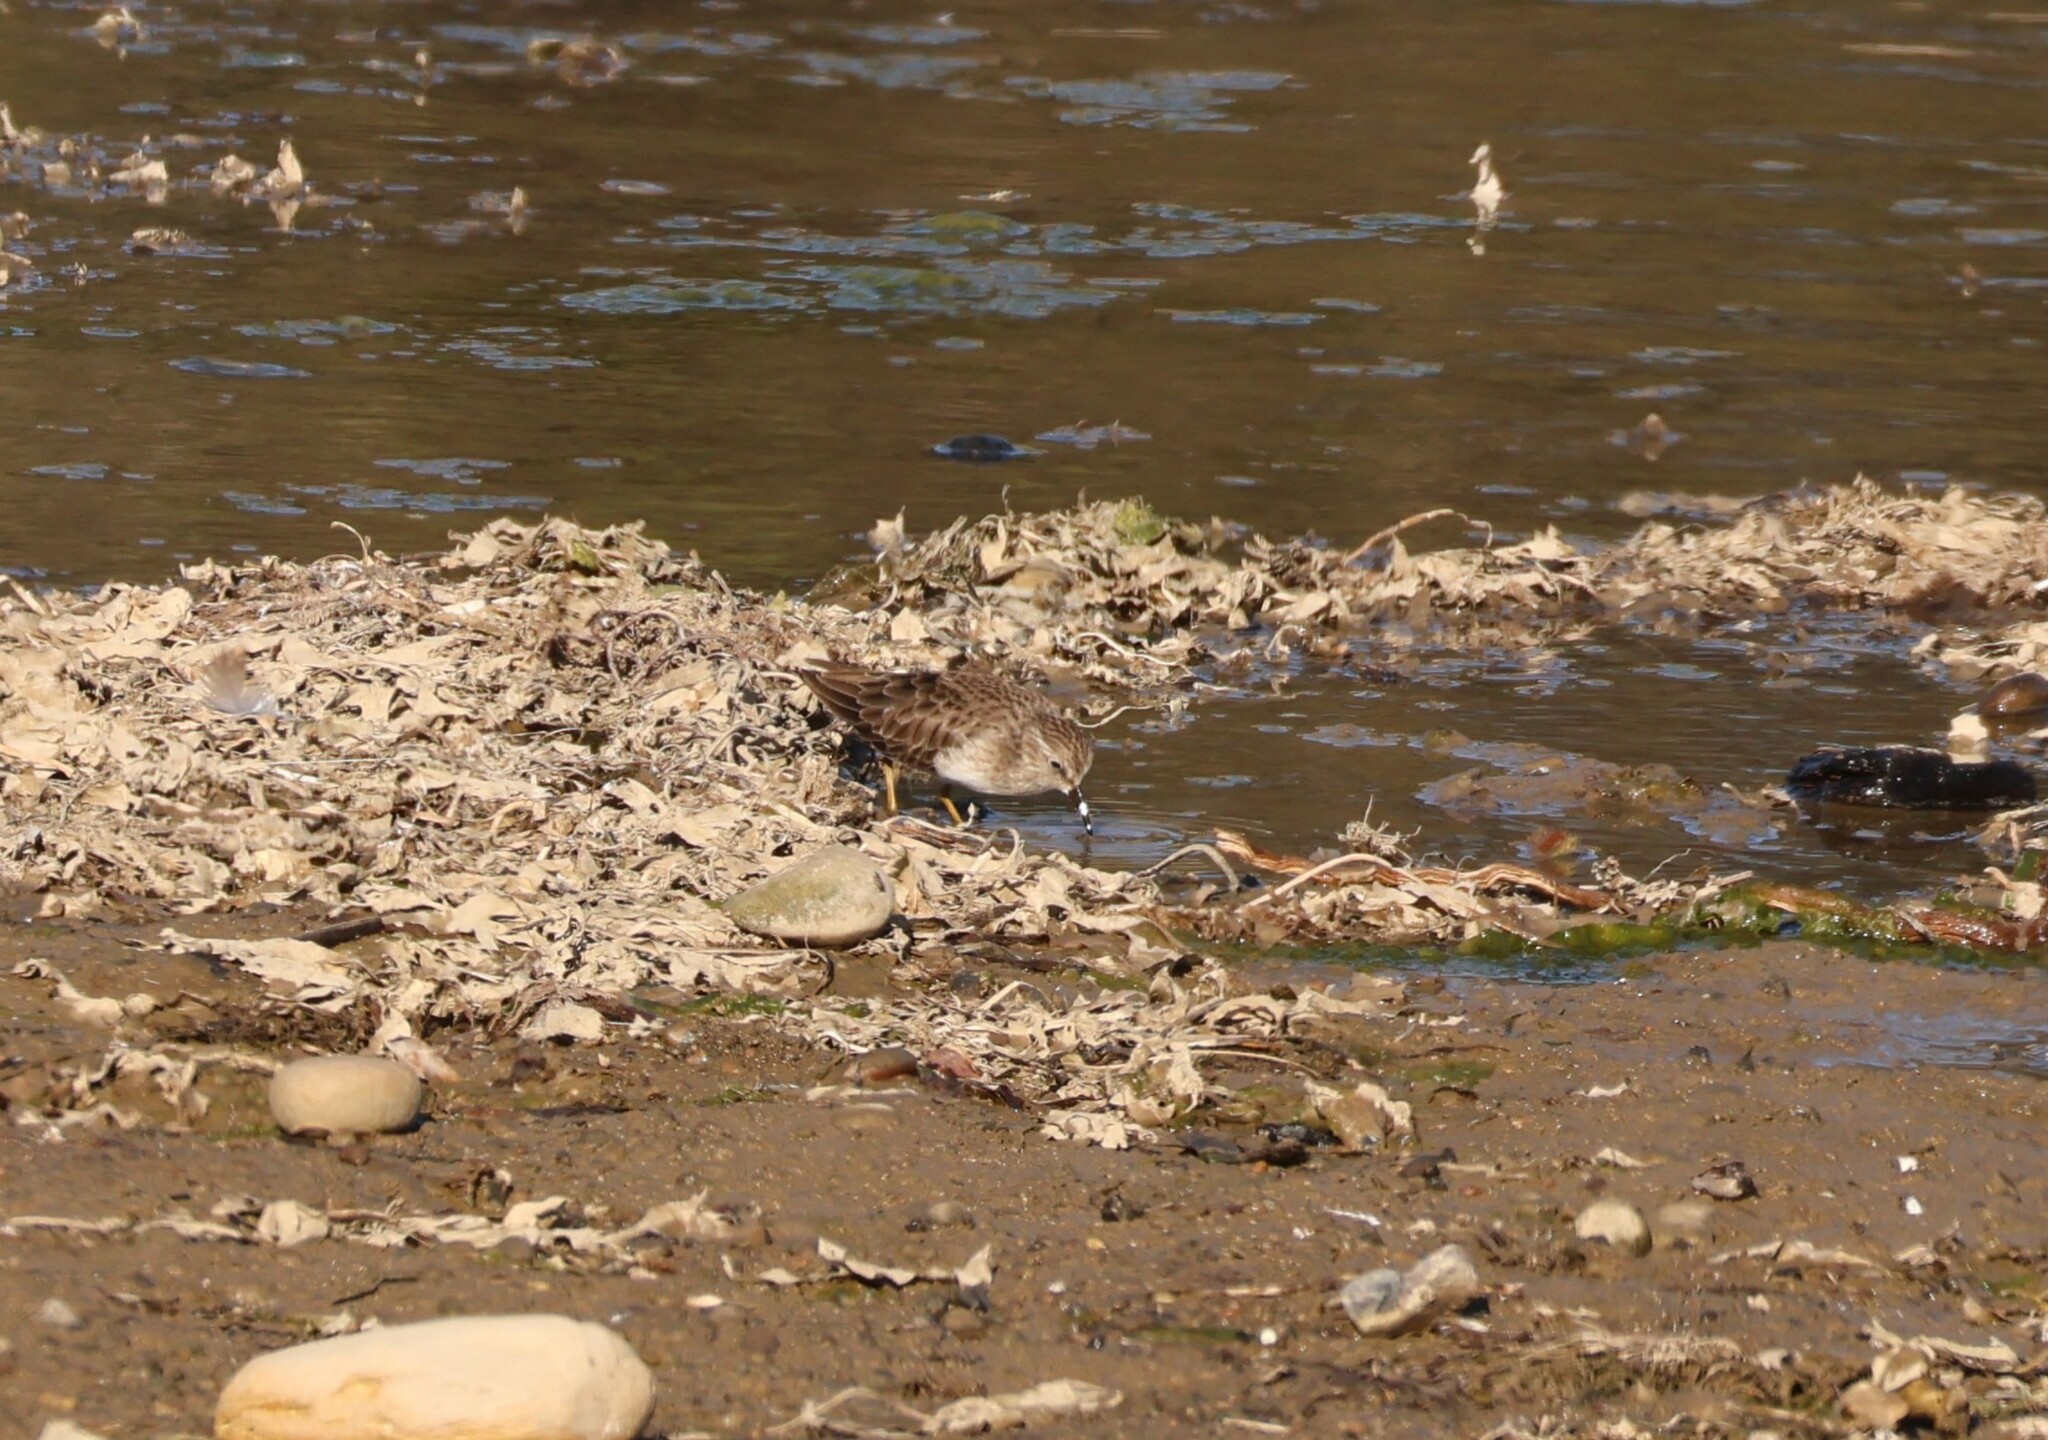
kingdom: Animalia
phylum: Chordata
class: Aves
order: Charadriiformes
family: Scolopacidae
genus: Calidris
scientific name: Calidris minutilla
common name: Least sandpiper
